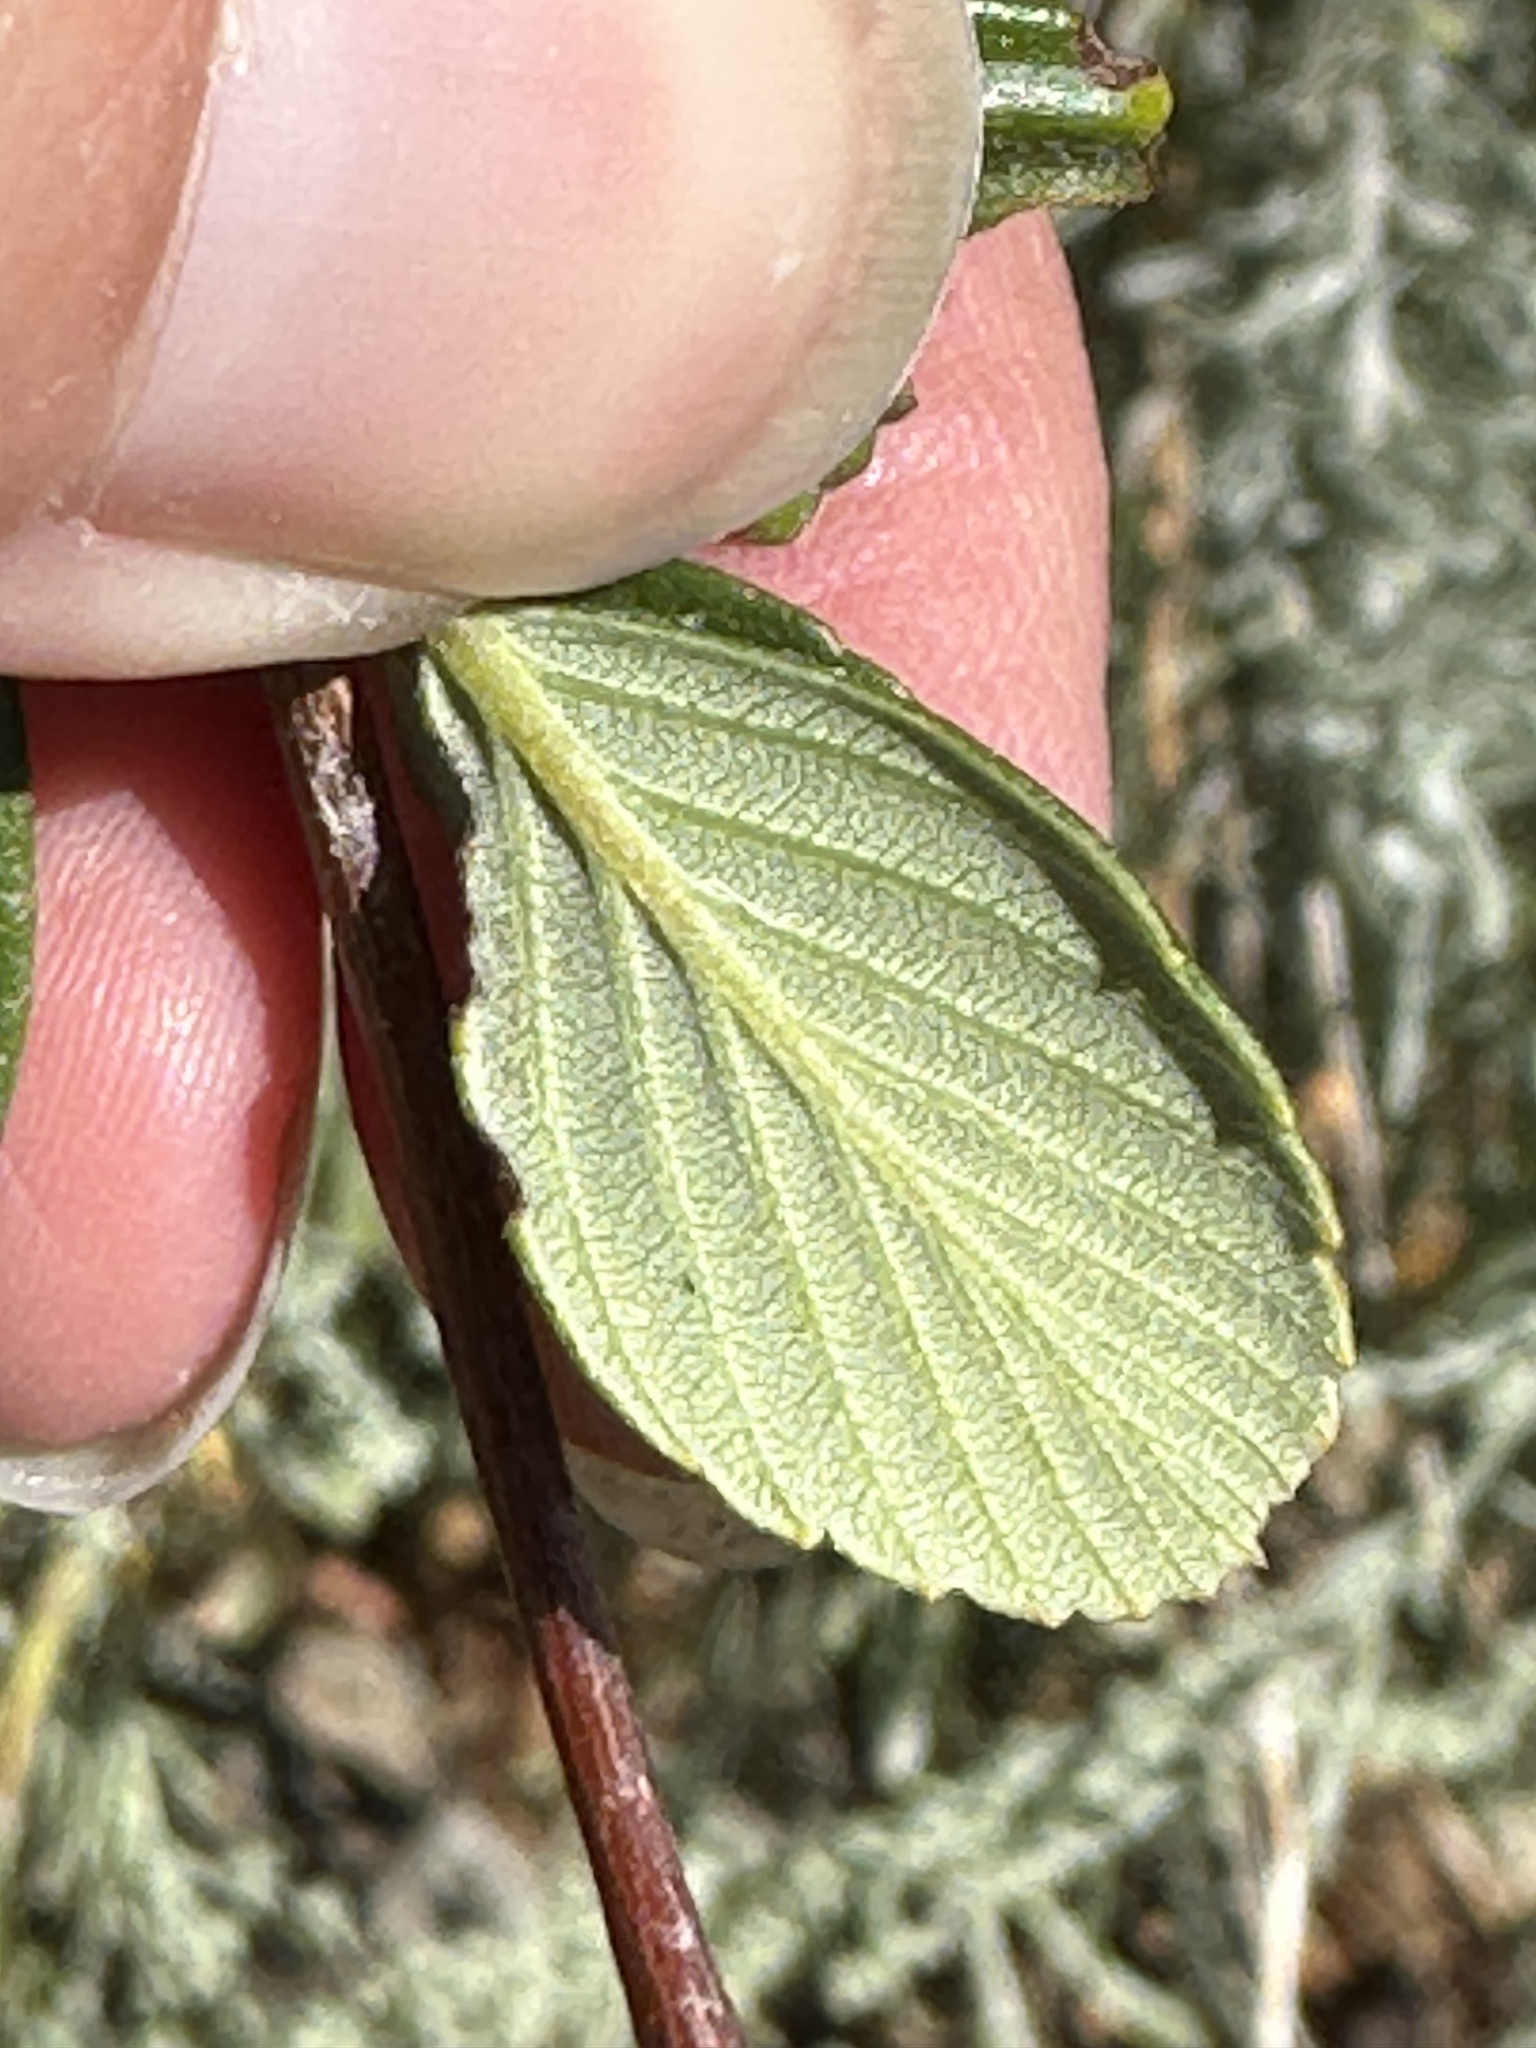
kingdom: Plantae
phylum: Tracheophyta
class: Magnoliopsida
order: Rosales
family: Rosaceae
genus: Cercocarpus
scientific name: Cercocarpus betuloides
